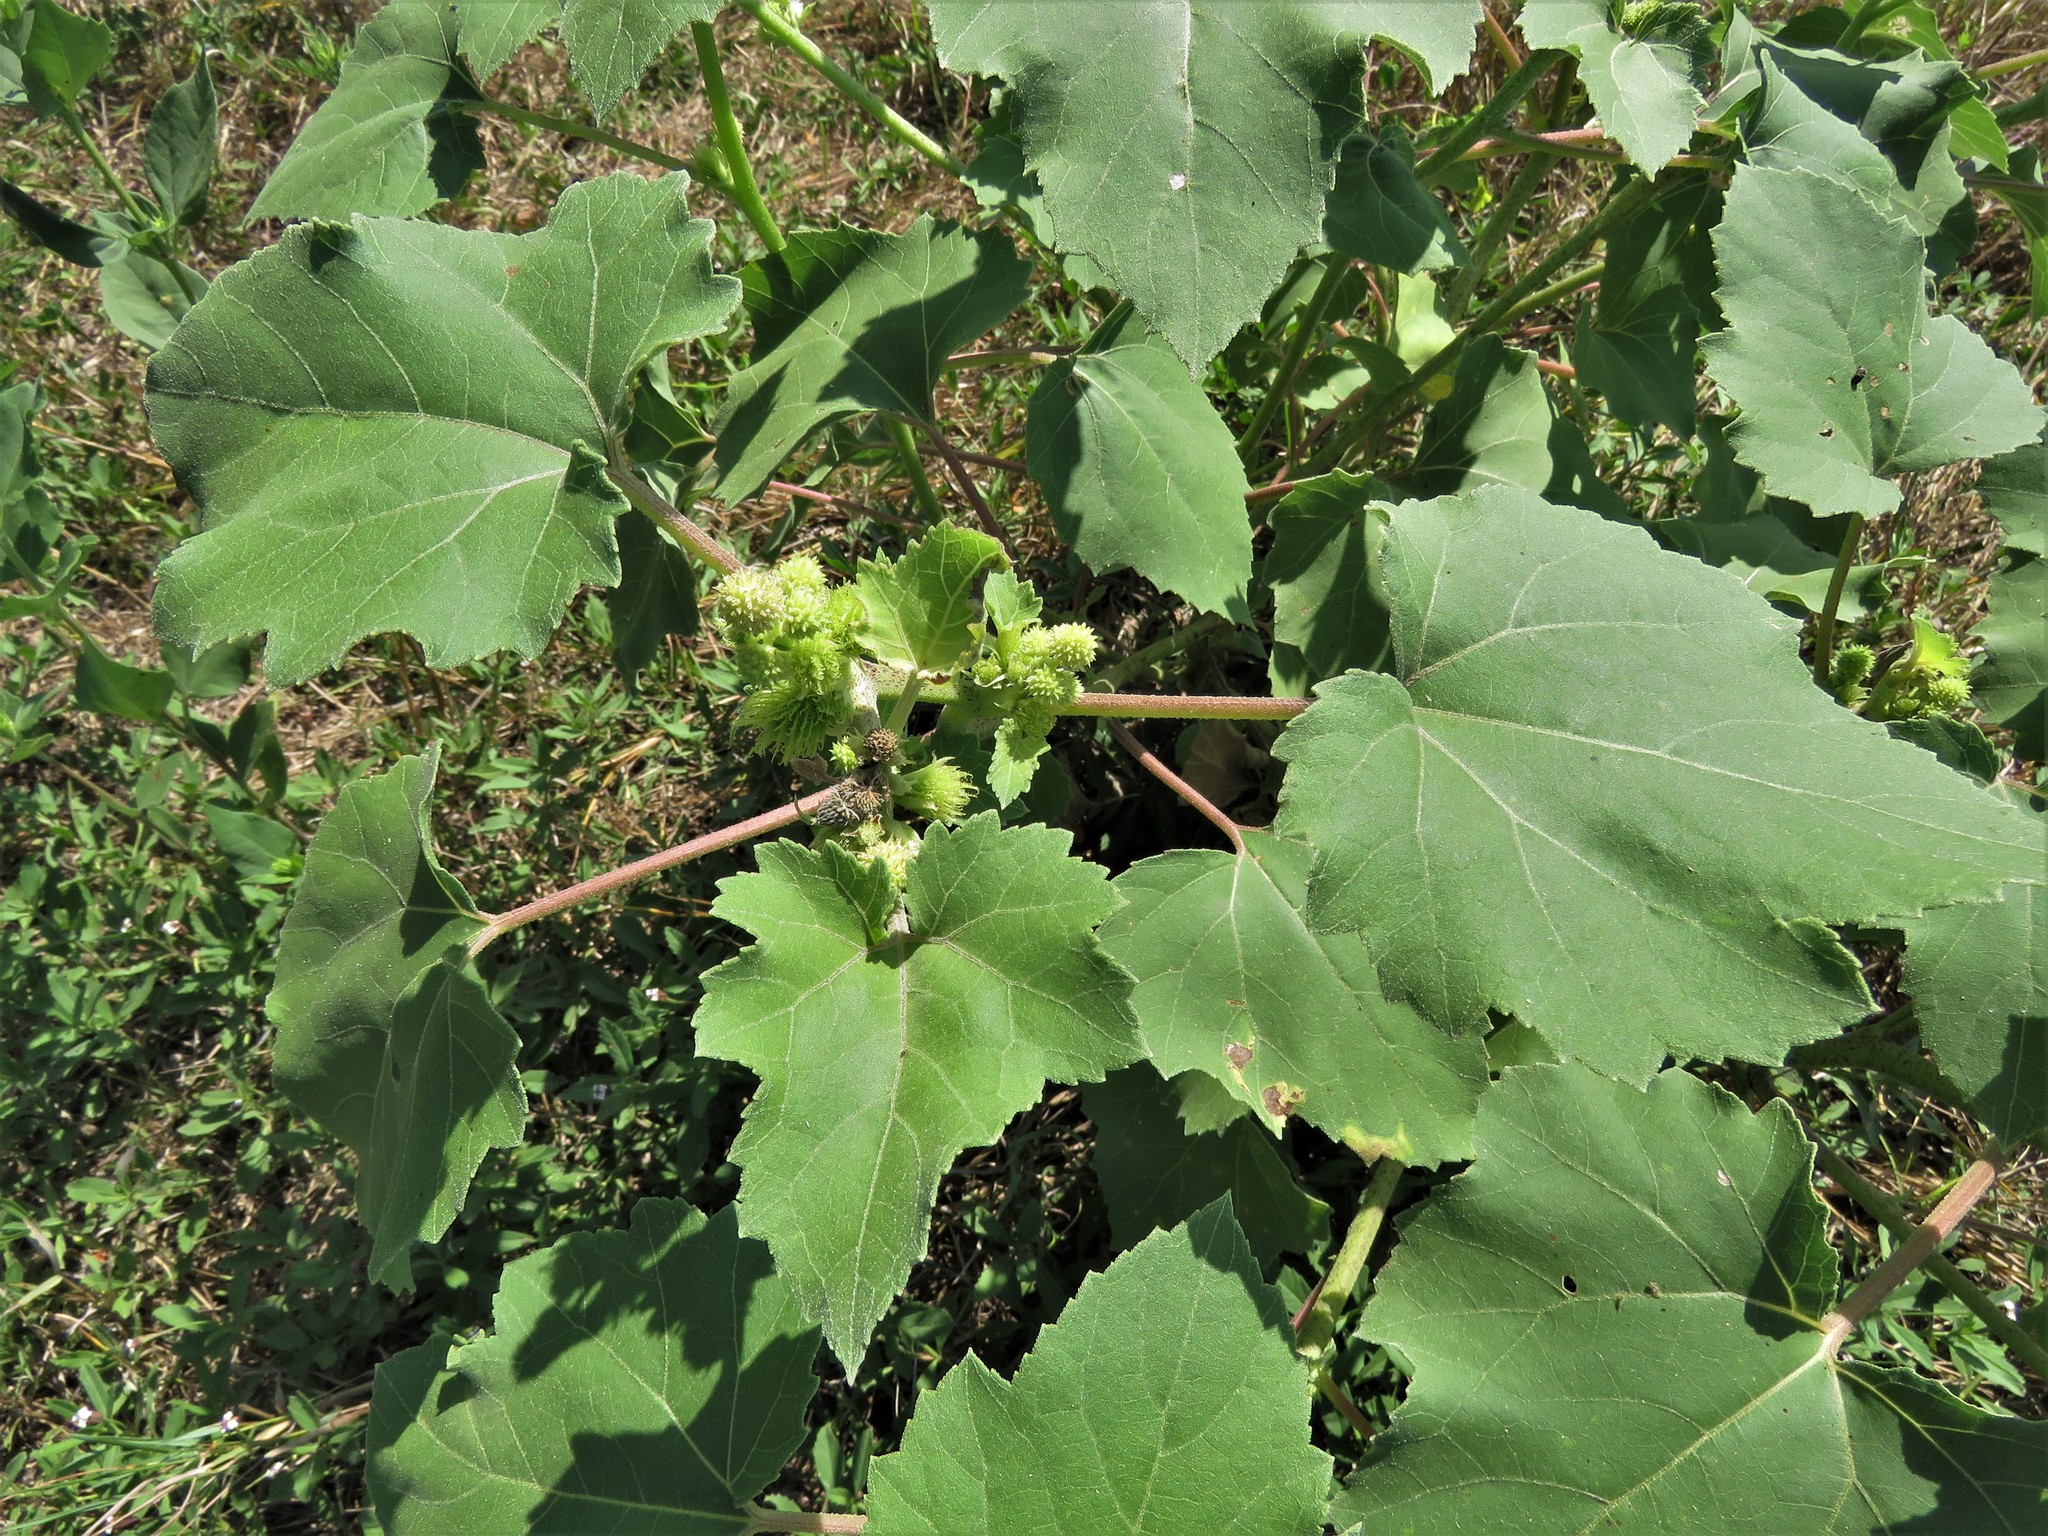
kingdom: Plantae
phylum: Tracheophyta
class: Magnoliopsida
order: Asterales
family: Asteraceae
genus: Xanthium
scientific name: Xanthium strumarium
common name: Rough cocklebur
